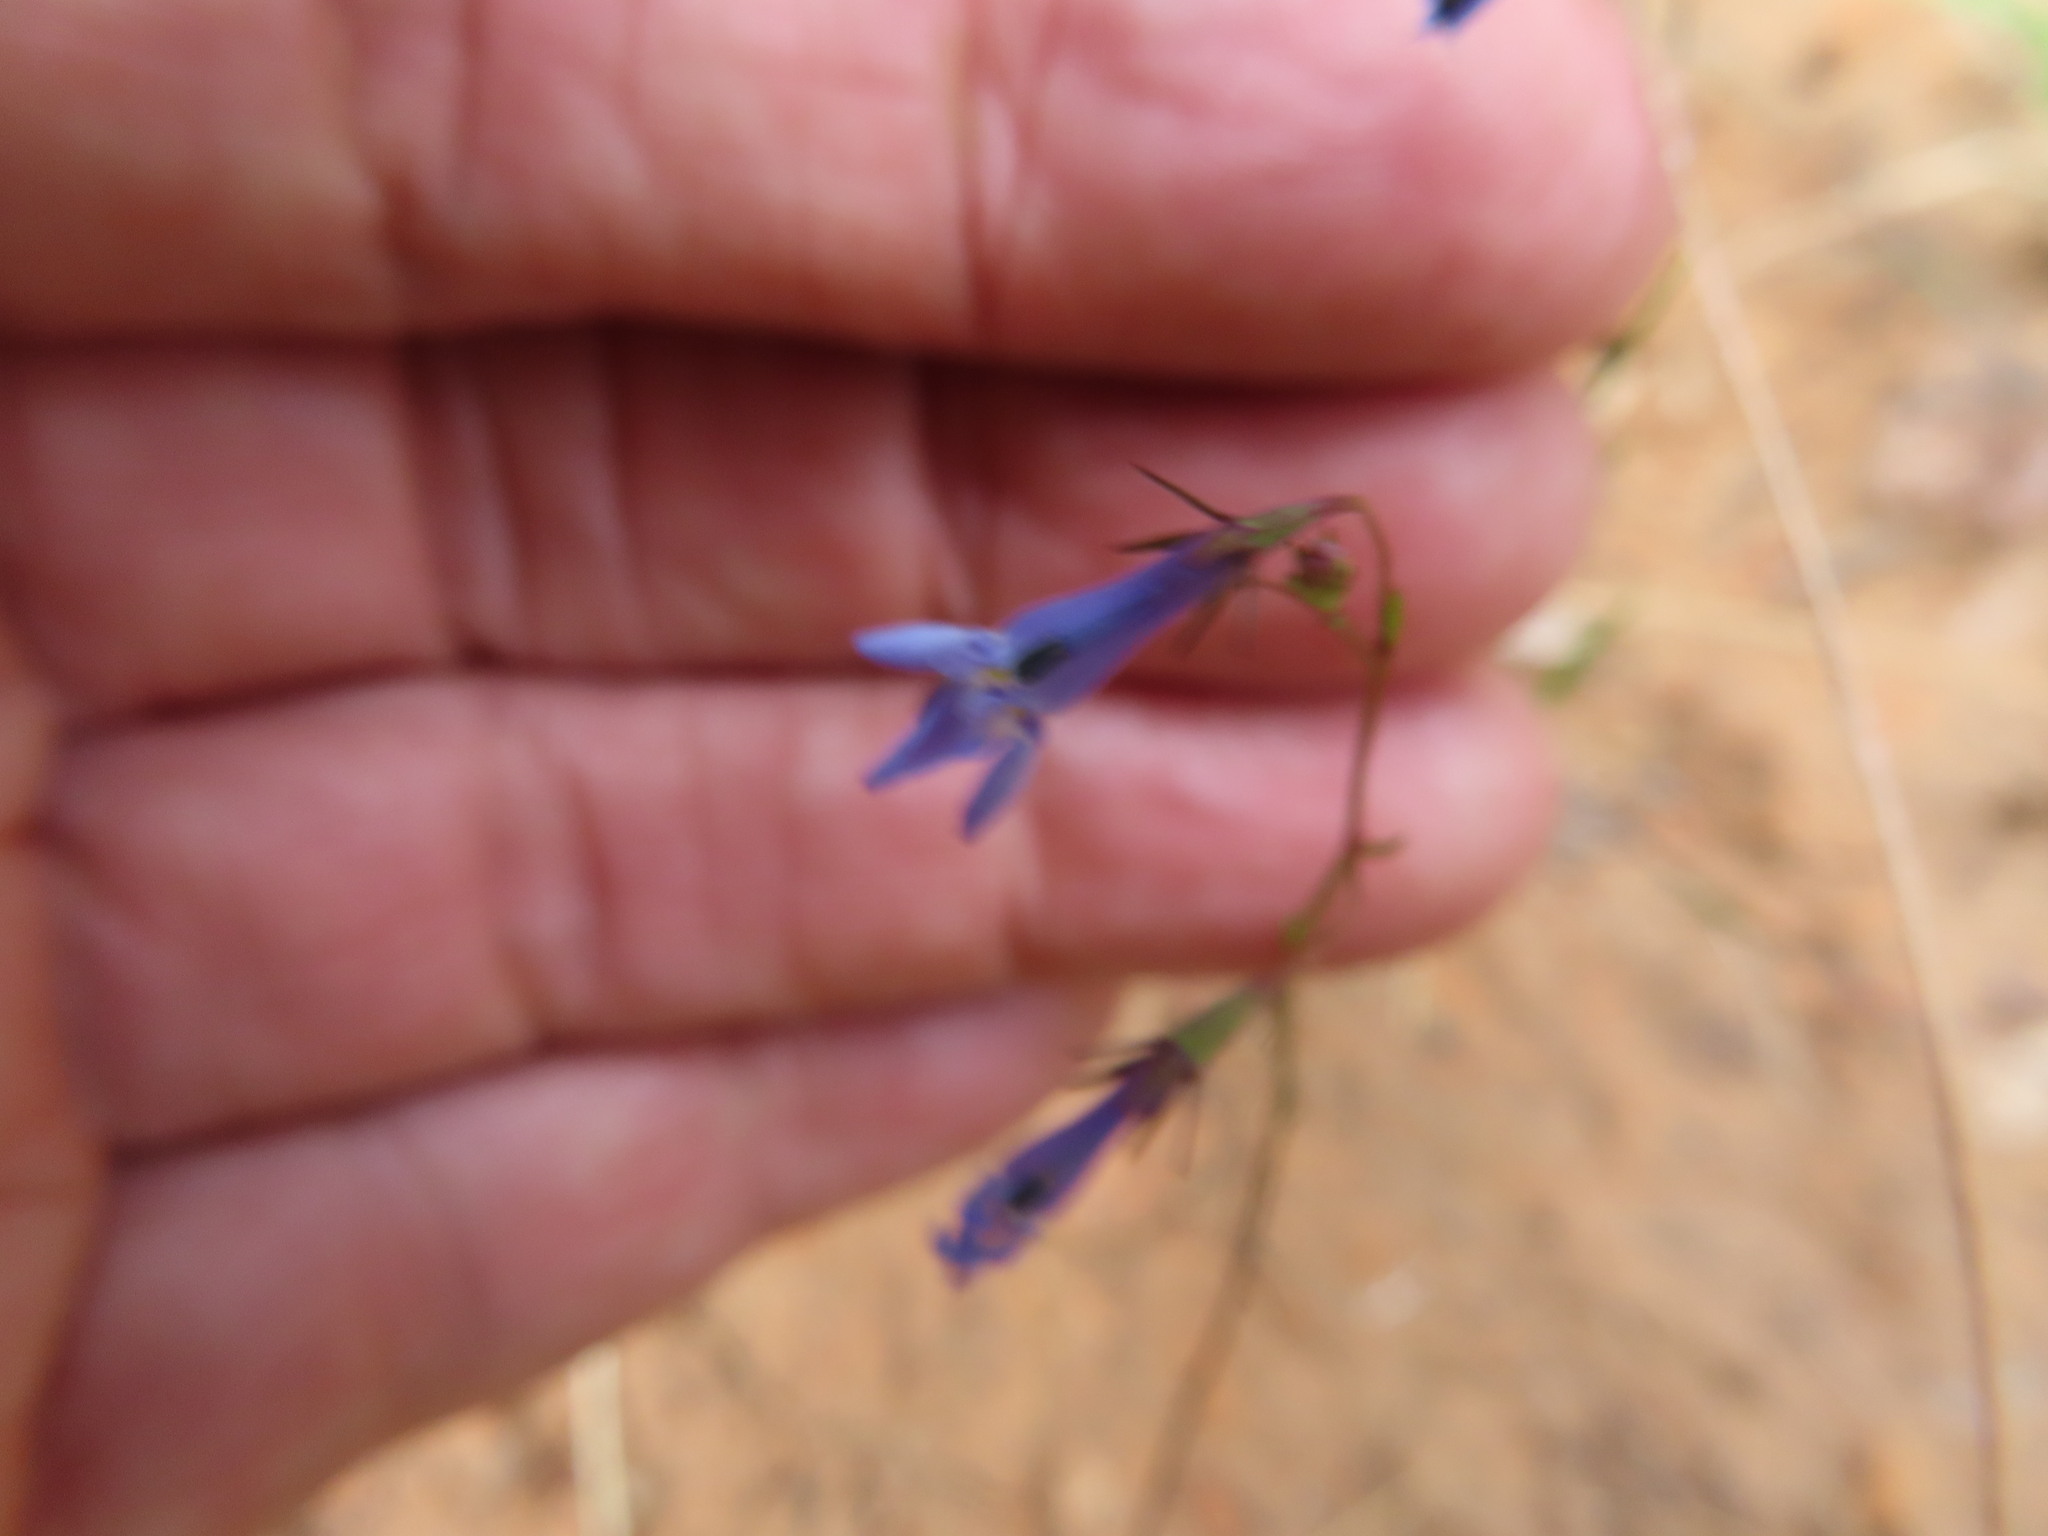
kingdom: Plantae
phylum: Tracheophyta
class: Magnoliopsida
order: Asterales
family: Campanulaceae
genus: Lobelia
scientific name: Lobelia erinus
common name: Edging lobelia
